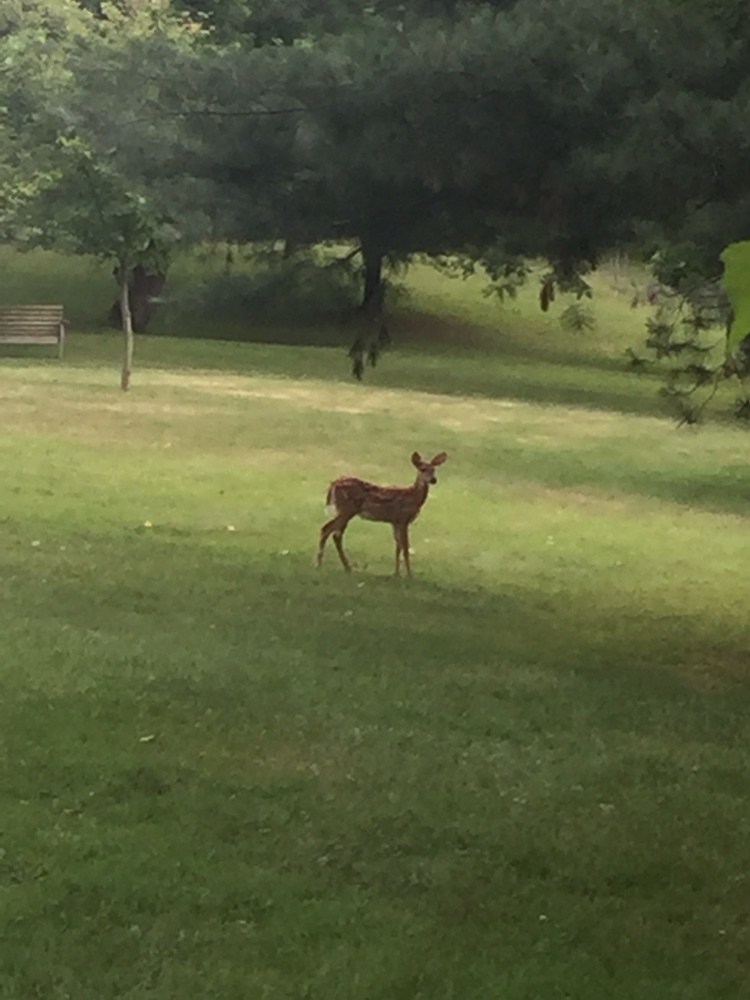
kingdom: Animalia
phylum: Chordata
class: Mammalia
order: Artiodactyla
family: Cervidae
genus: Odocoileus
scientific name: Odocoileus virginianus
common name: White-tailed deer
